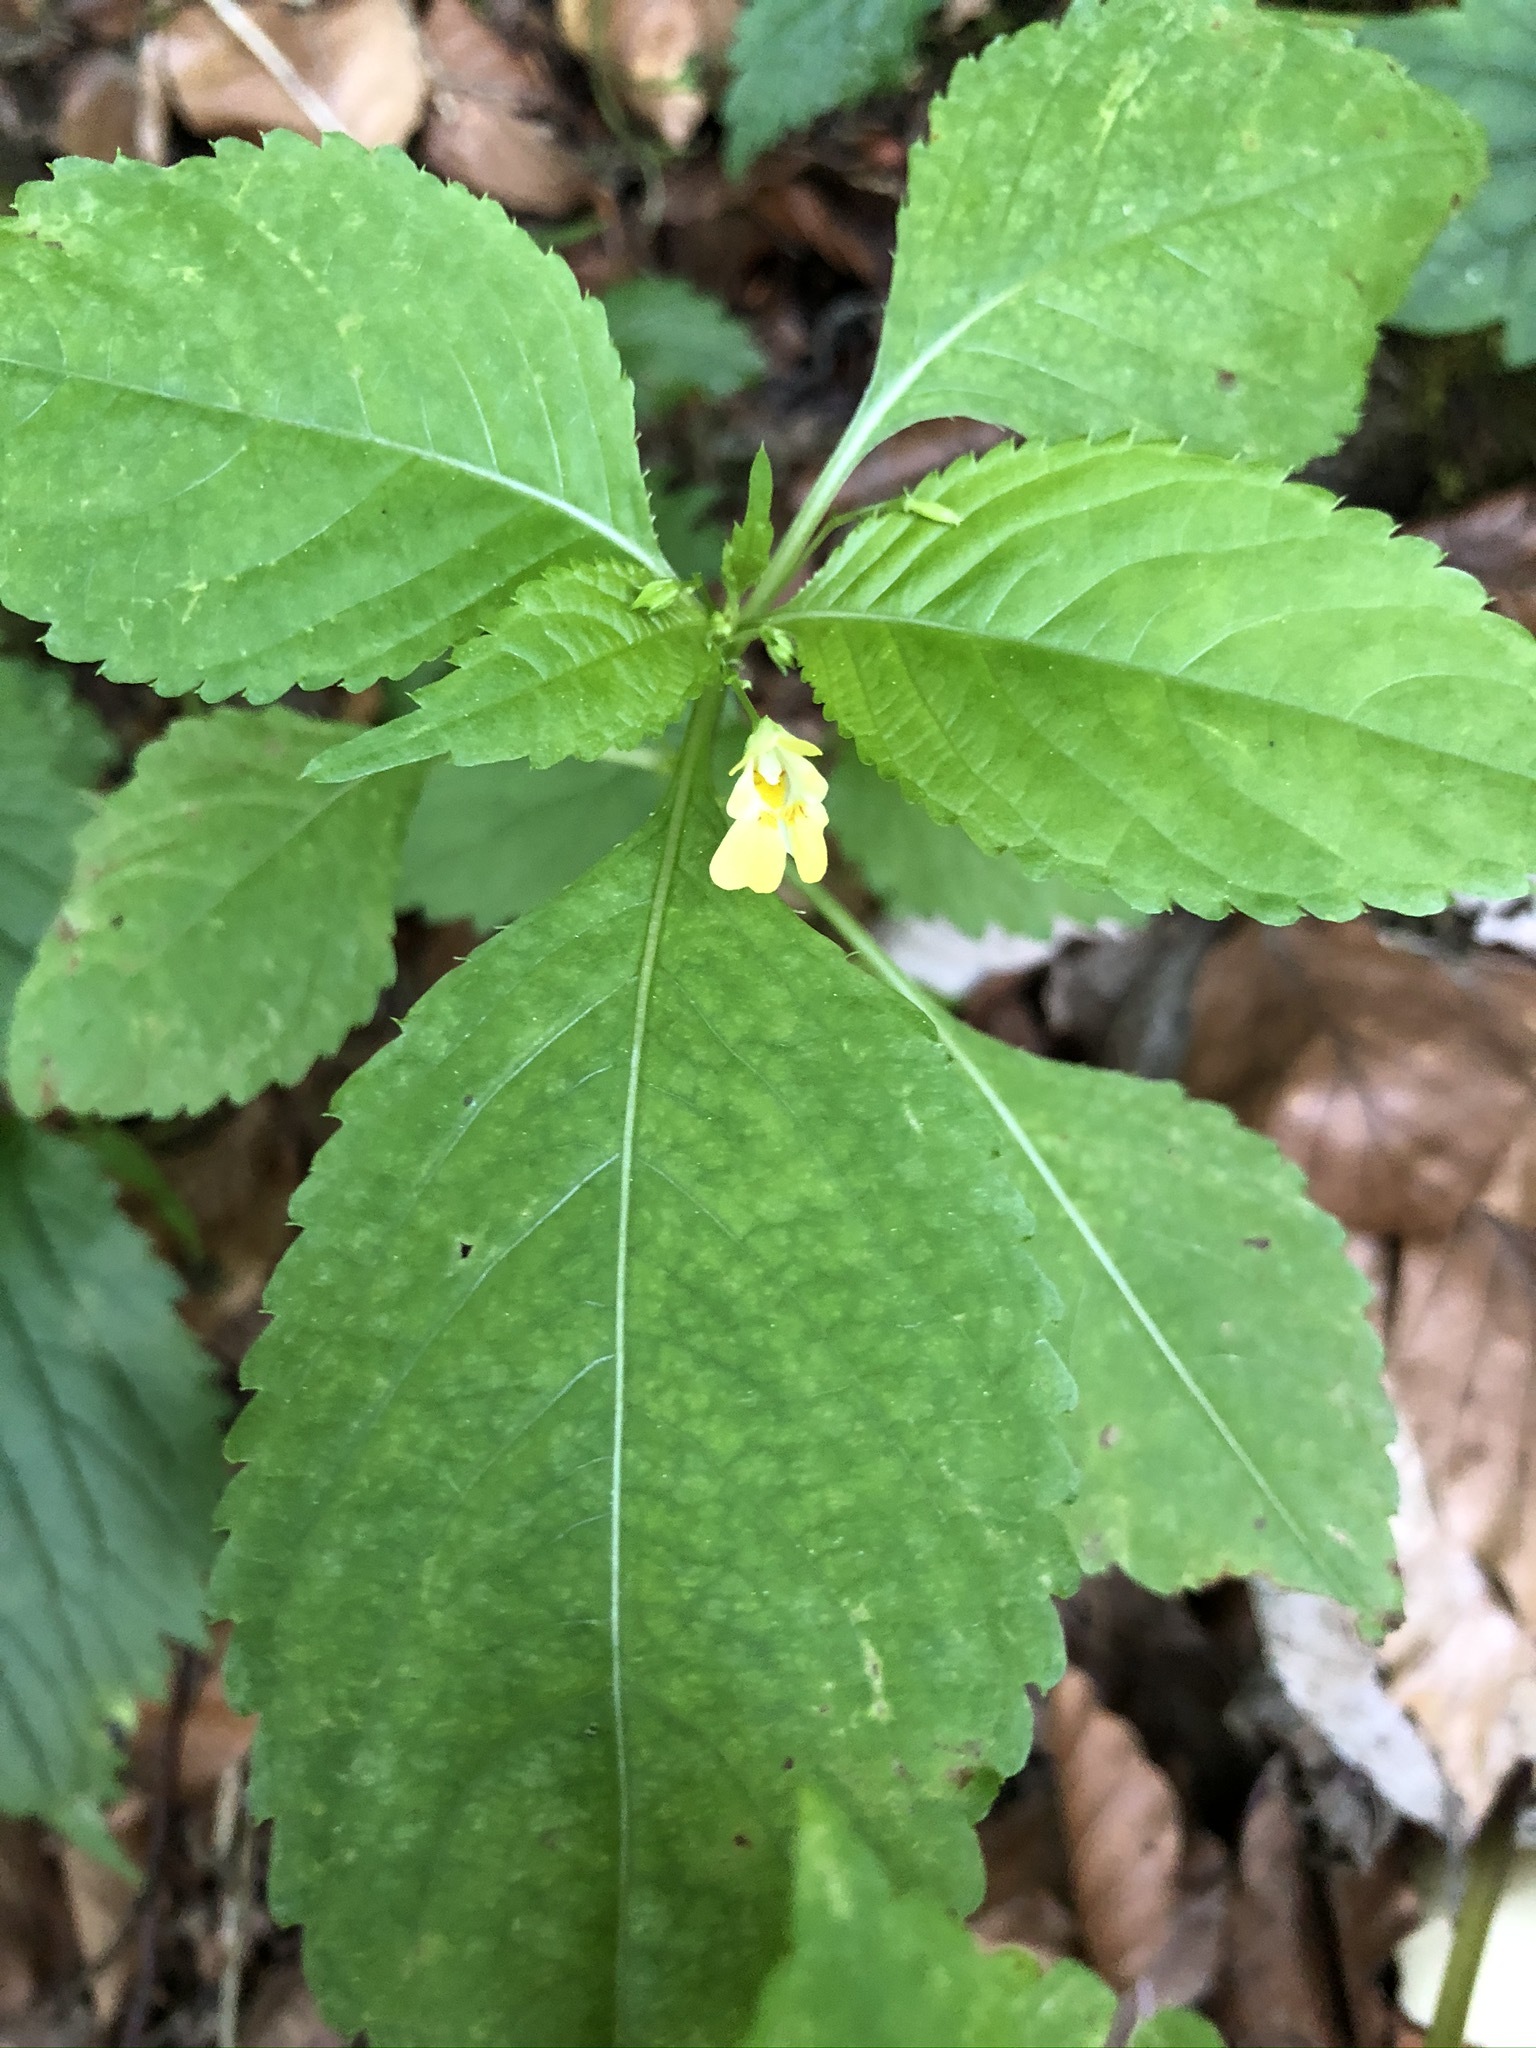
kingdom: Plantae
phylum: Tracheophyta
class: Magnoliopsida
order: Ericales
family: Balsaminaceae
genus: Impatiens
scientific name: Impatiens parviflora
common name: Small balsam
